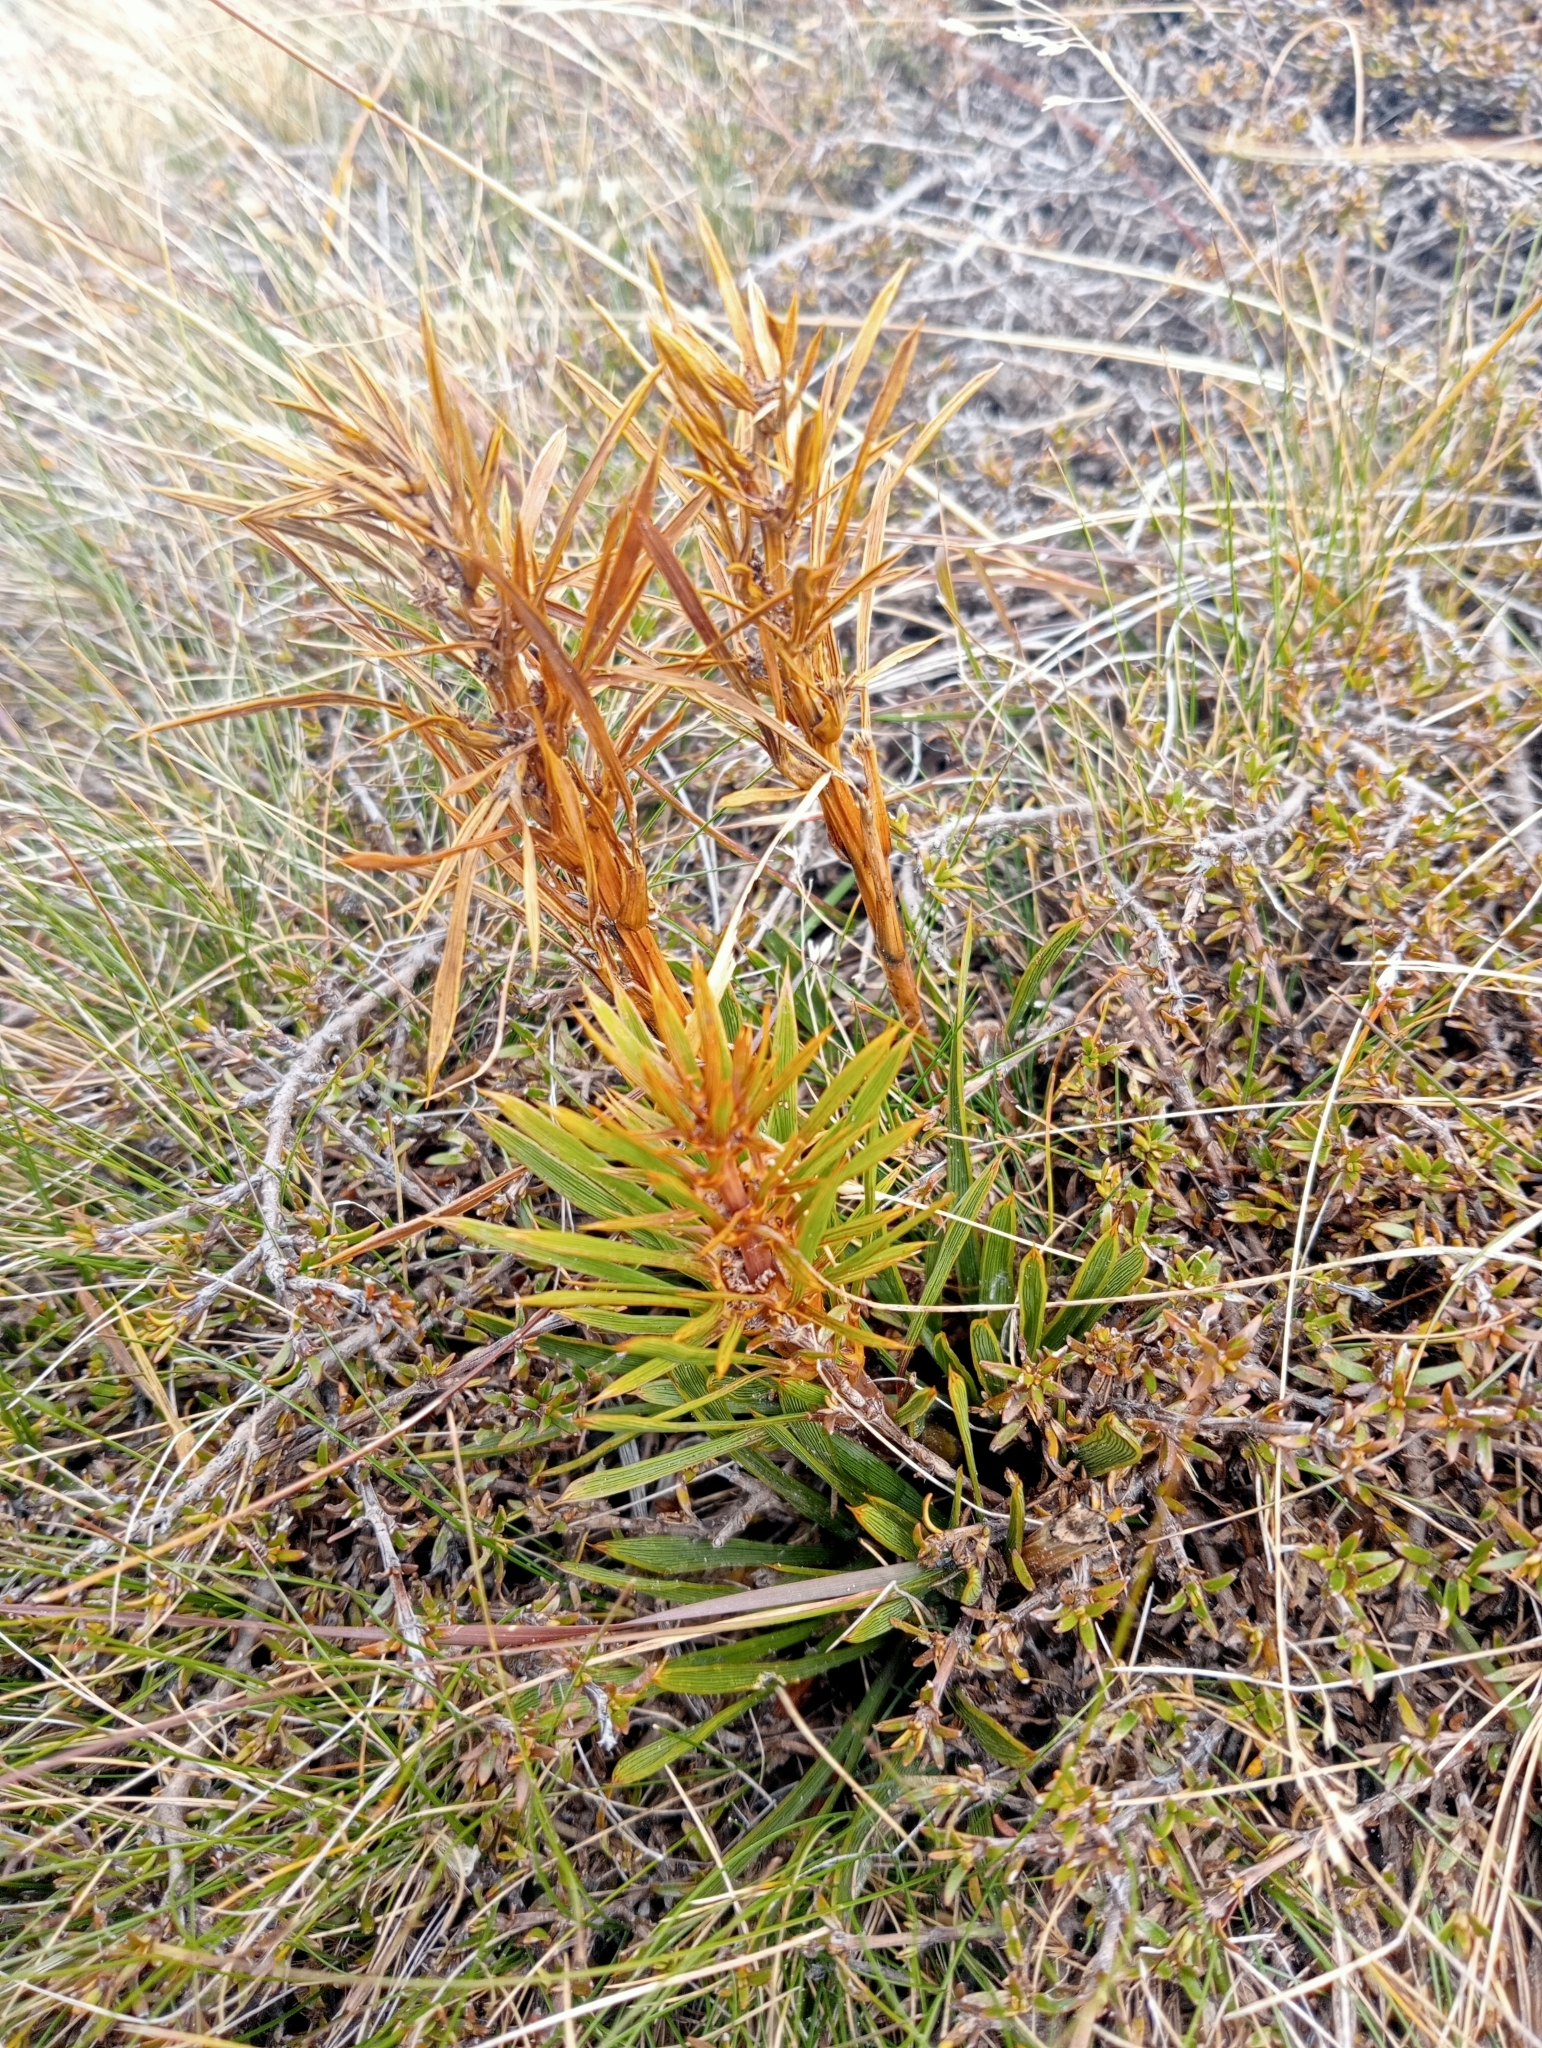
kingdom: Plantae
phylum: Tracheophyta
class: Magnoliopsida
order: Apiales
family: Apiaceae
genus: Aciphylla
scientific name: Aciphylla verticillata
